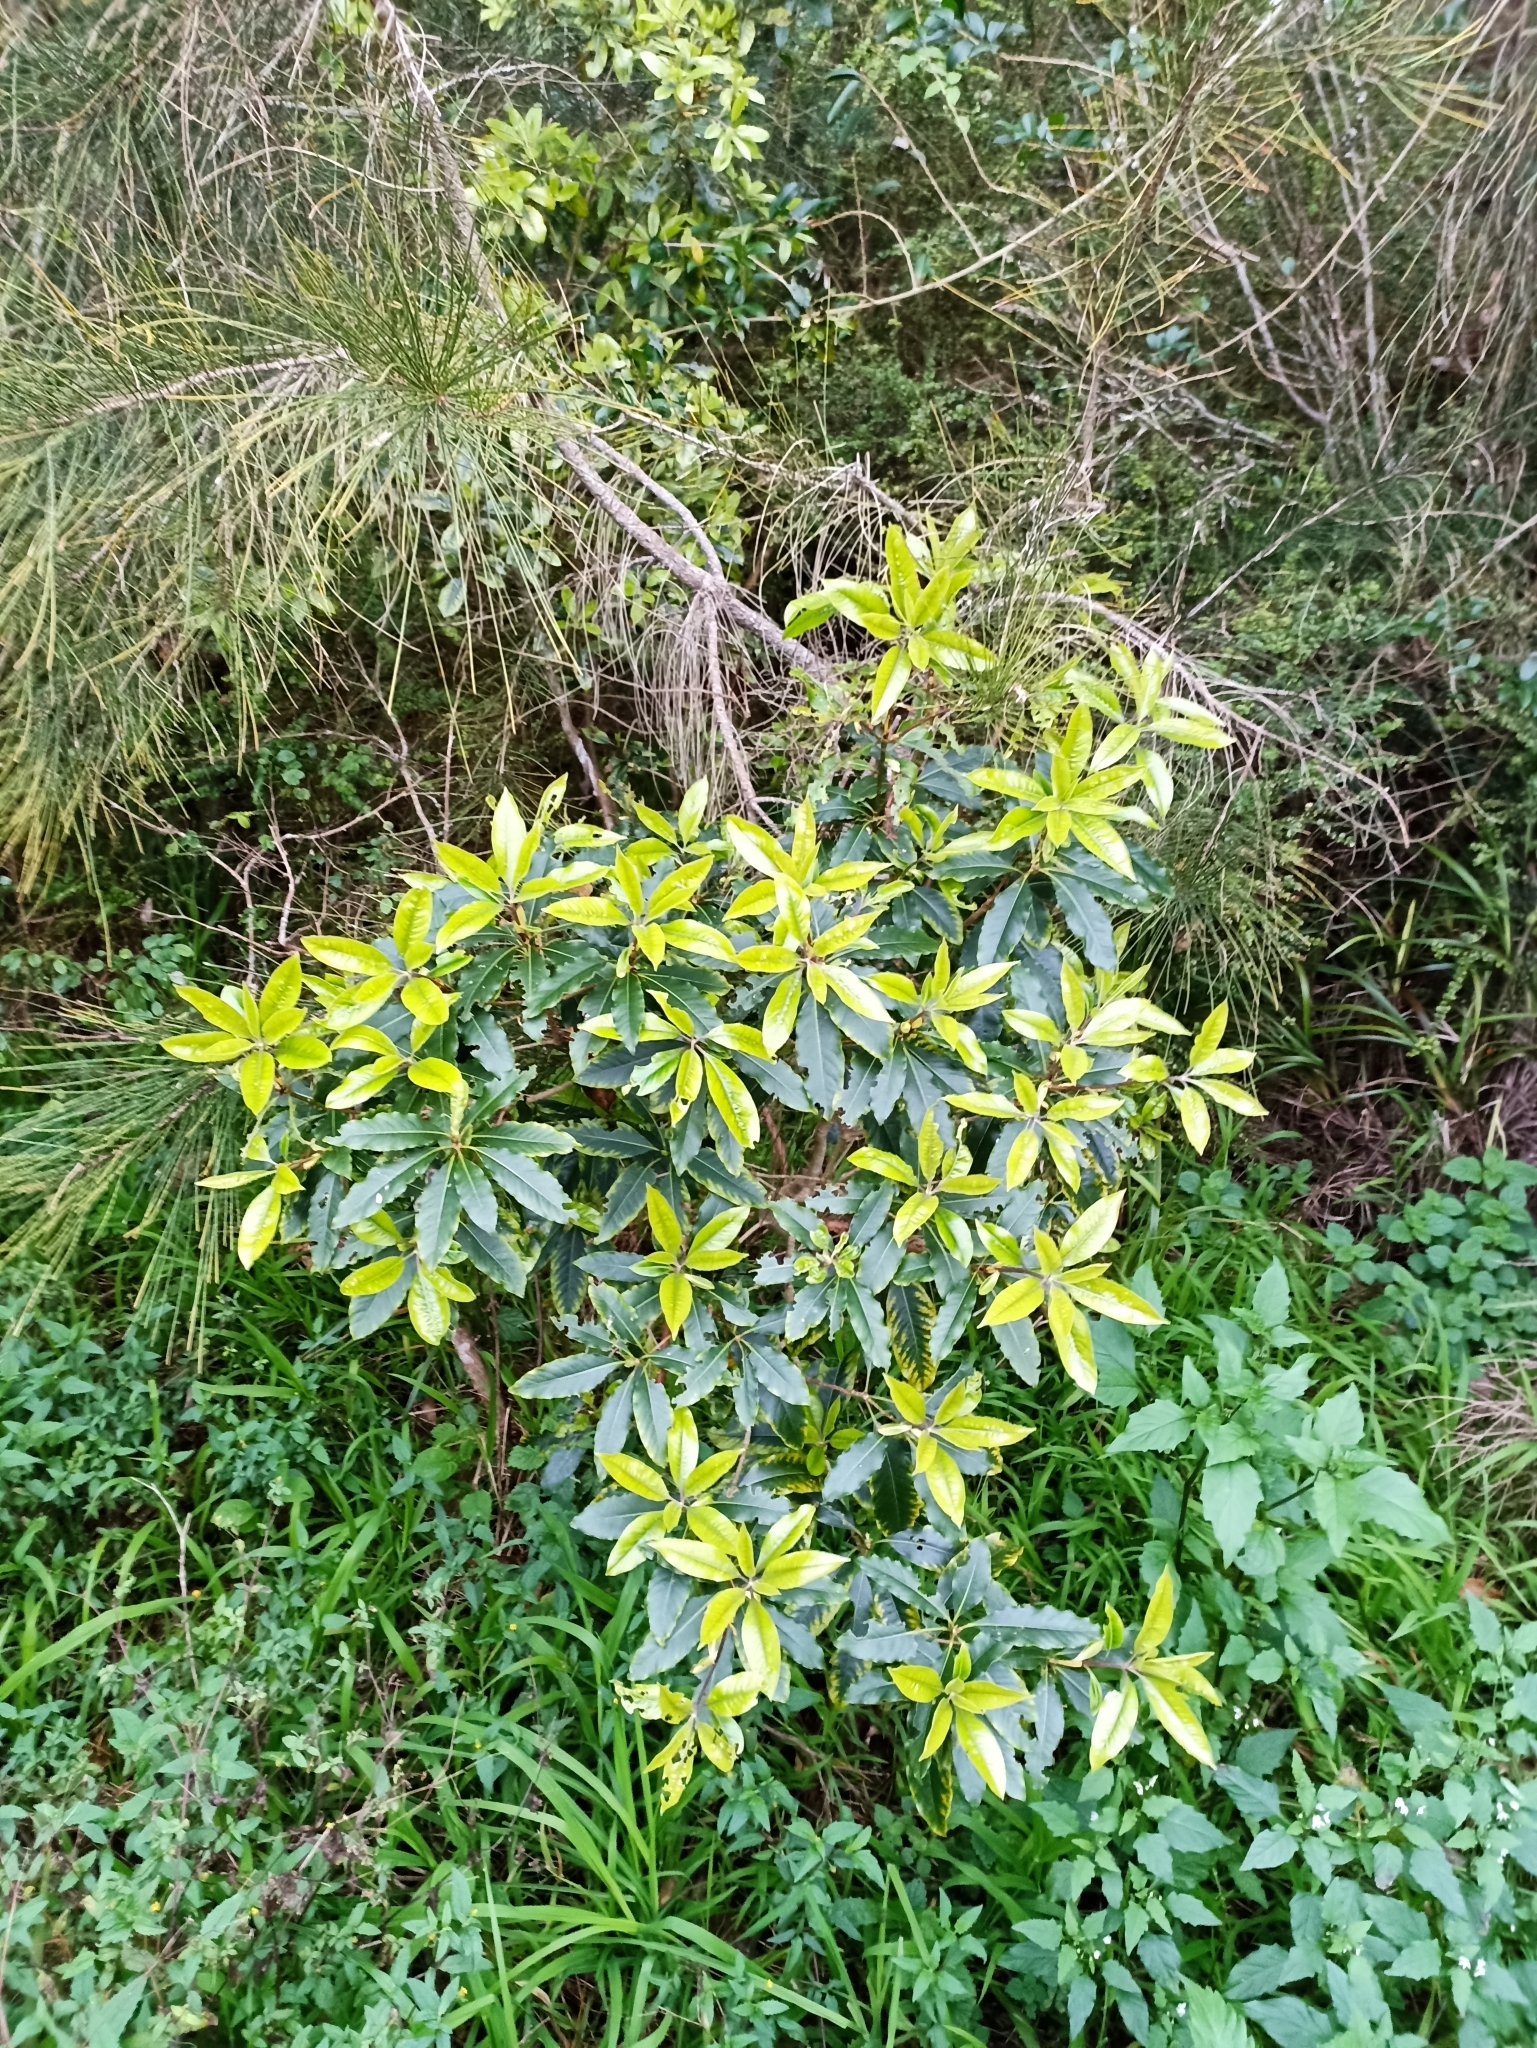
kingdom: Plantae
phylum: Tracheophyta
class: Magnoliopsida
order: Apiales
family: Pittosporaceae
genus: Pittosporum
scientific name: Pittosporum undulatum
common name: Australian cheesewood
